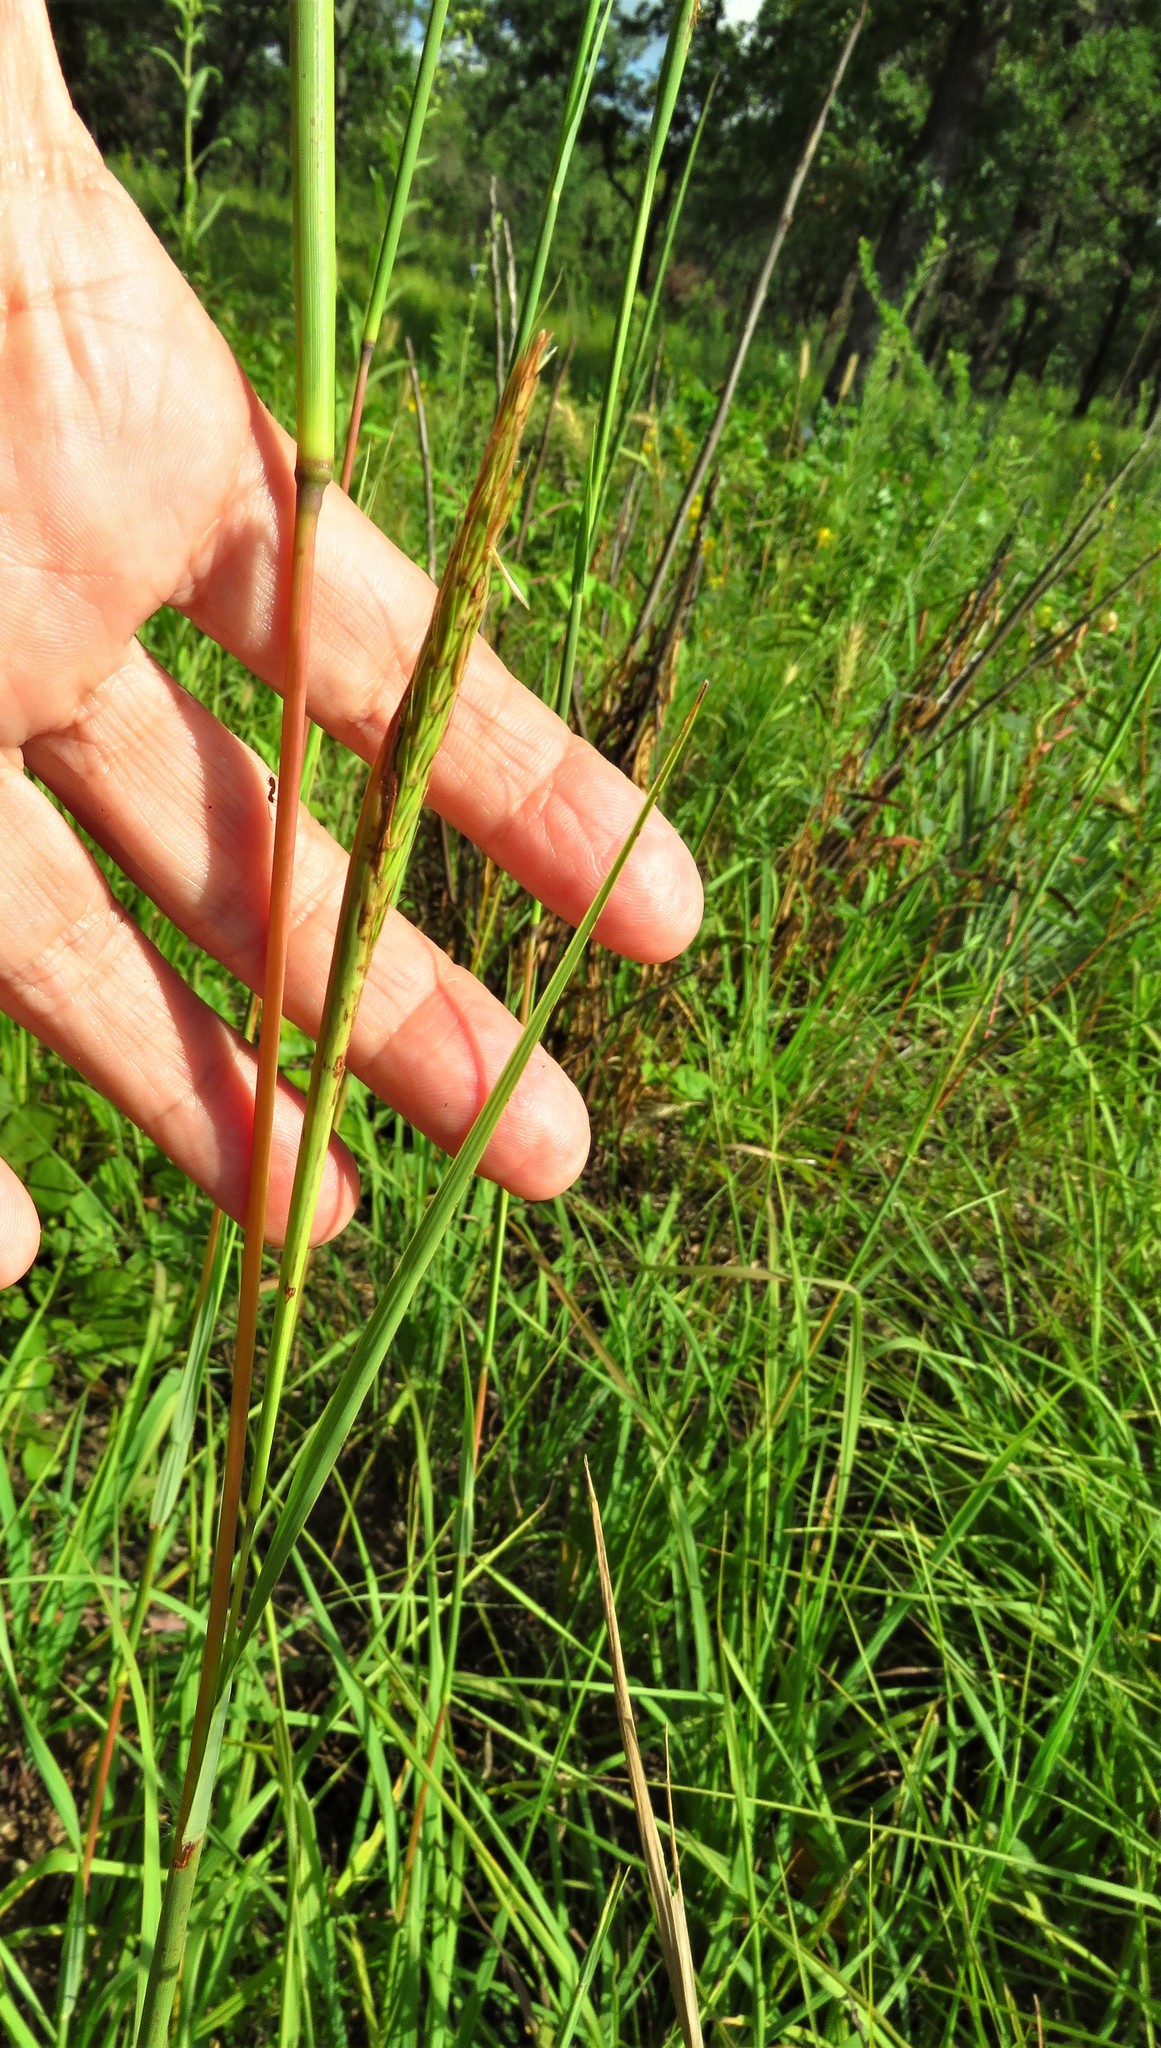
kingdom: Plantae
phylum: Tracheophyta
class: Liliopsida
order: Poales
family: Poaceae
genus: Andropogon
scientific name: Andropogon gerardi
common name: Big bluestem
